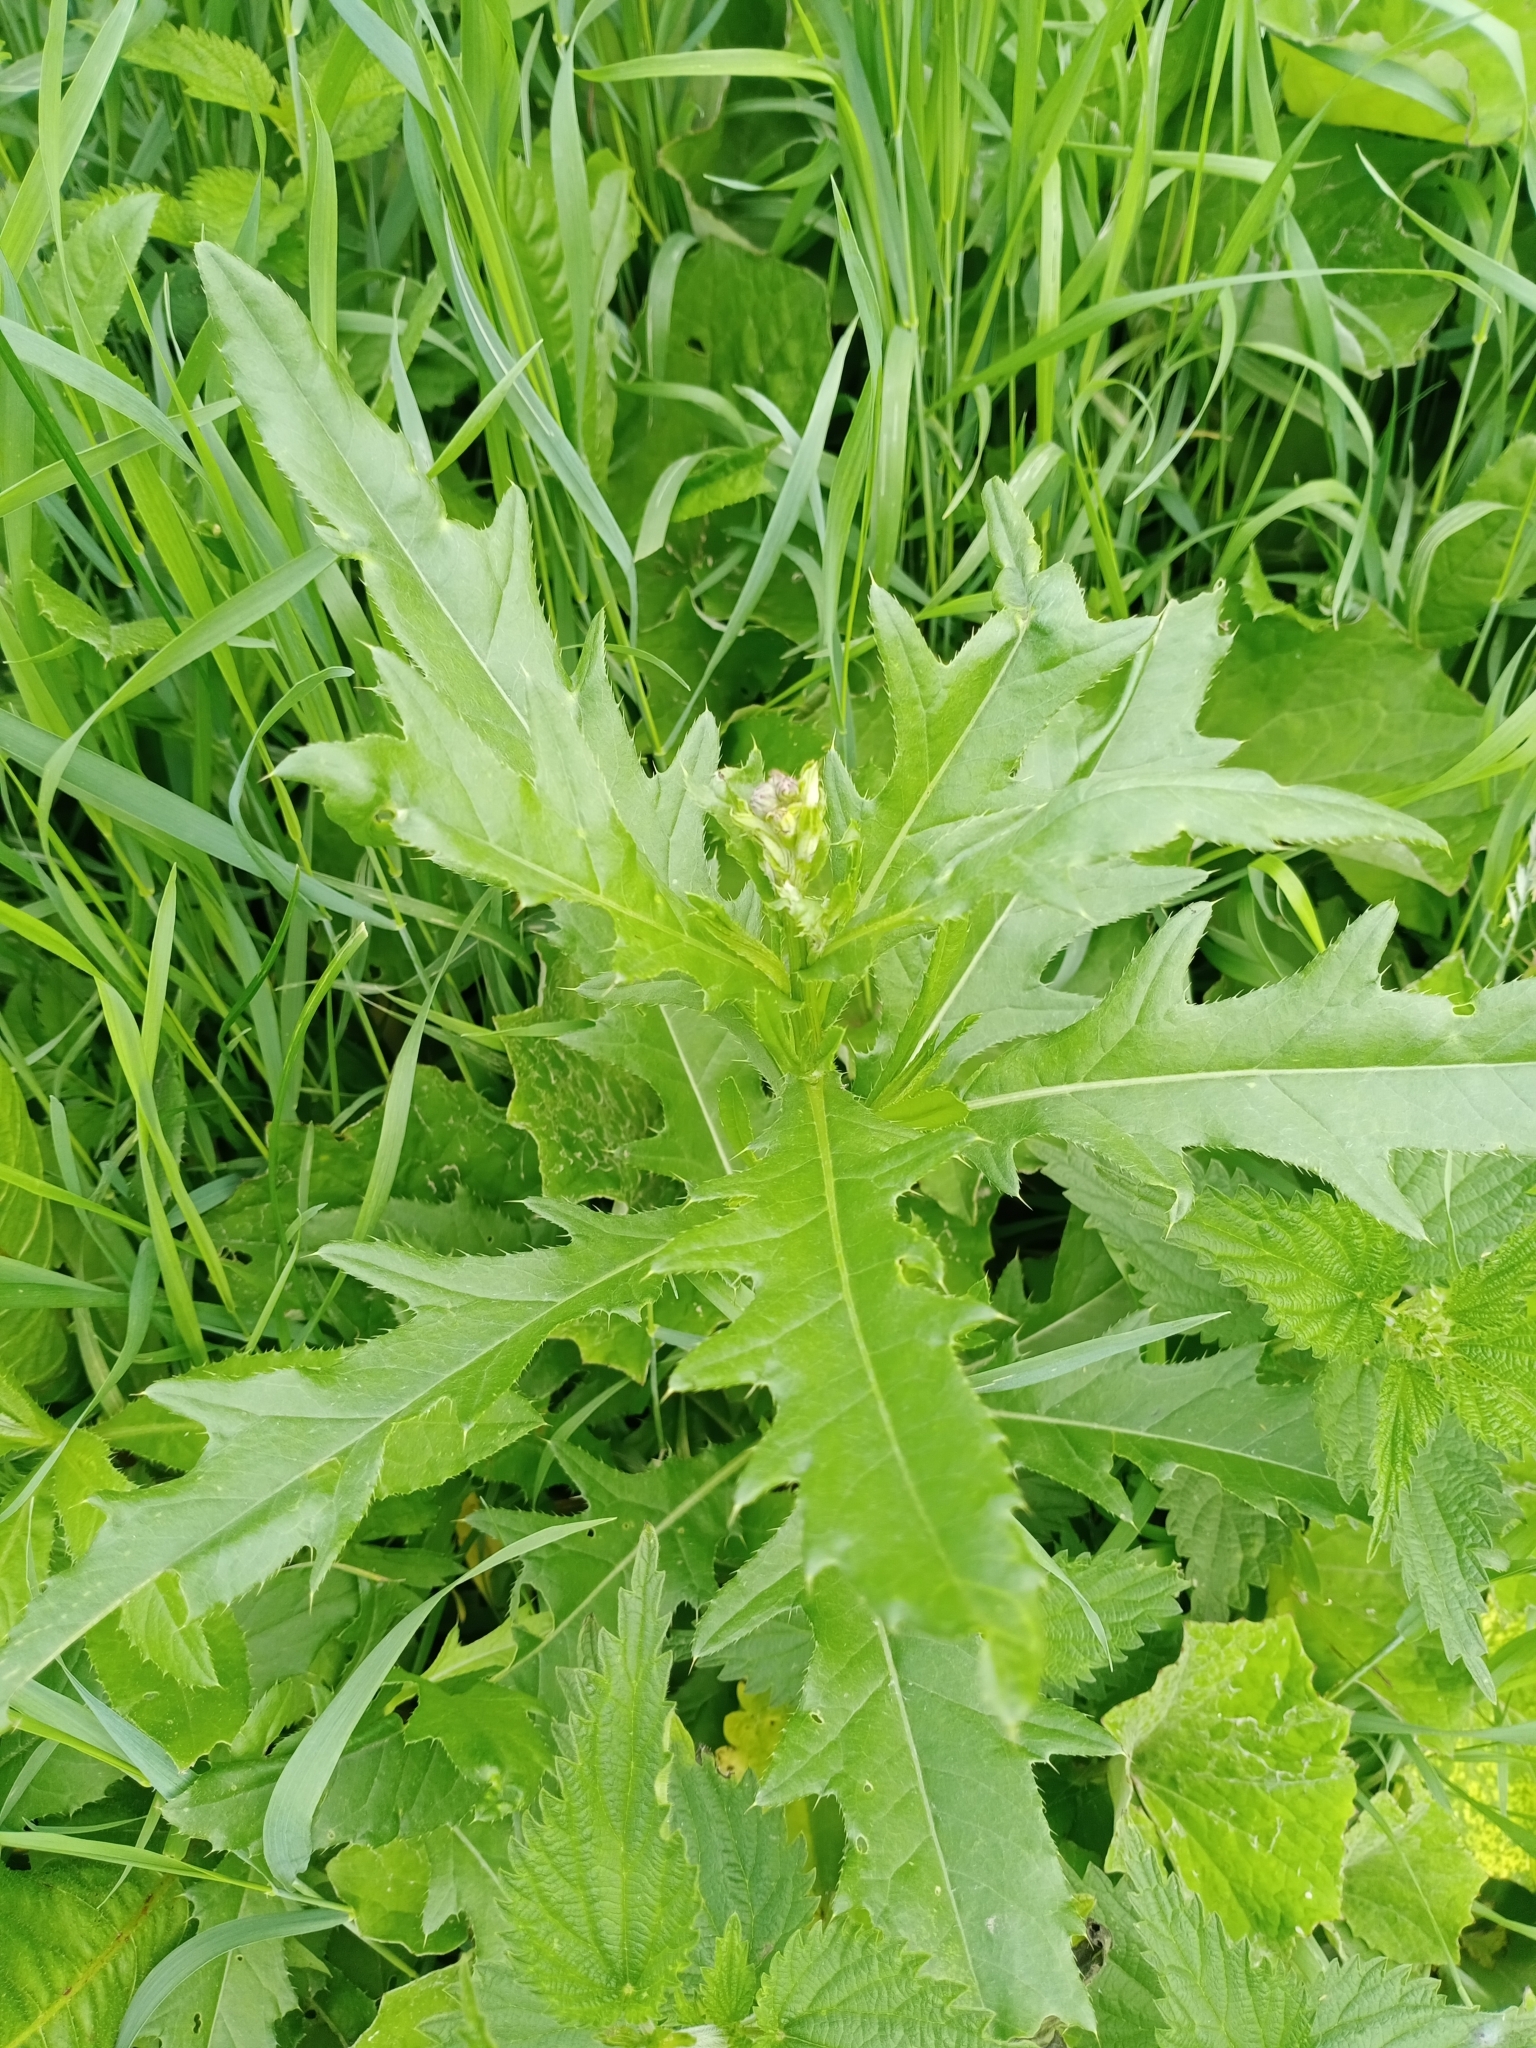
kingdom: Plantae
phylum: Tracheophyta
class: Magnoliopsida
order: Asterales
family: Asteraceae
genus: Cirsium
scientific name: Cirsium arvense
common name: Creeping thistle
